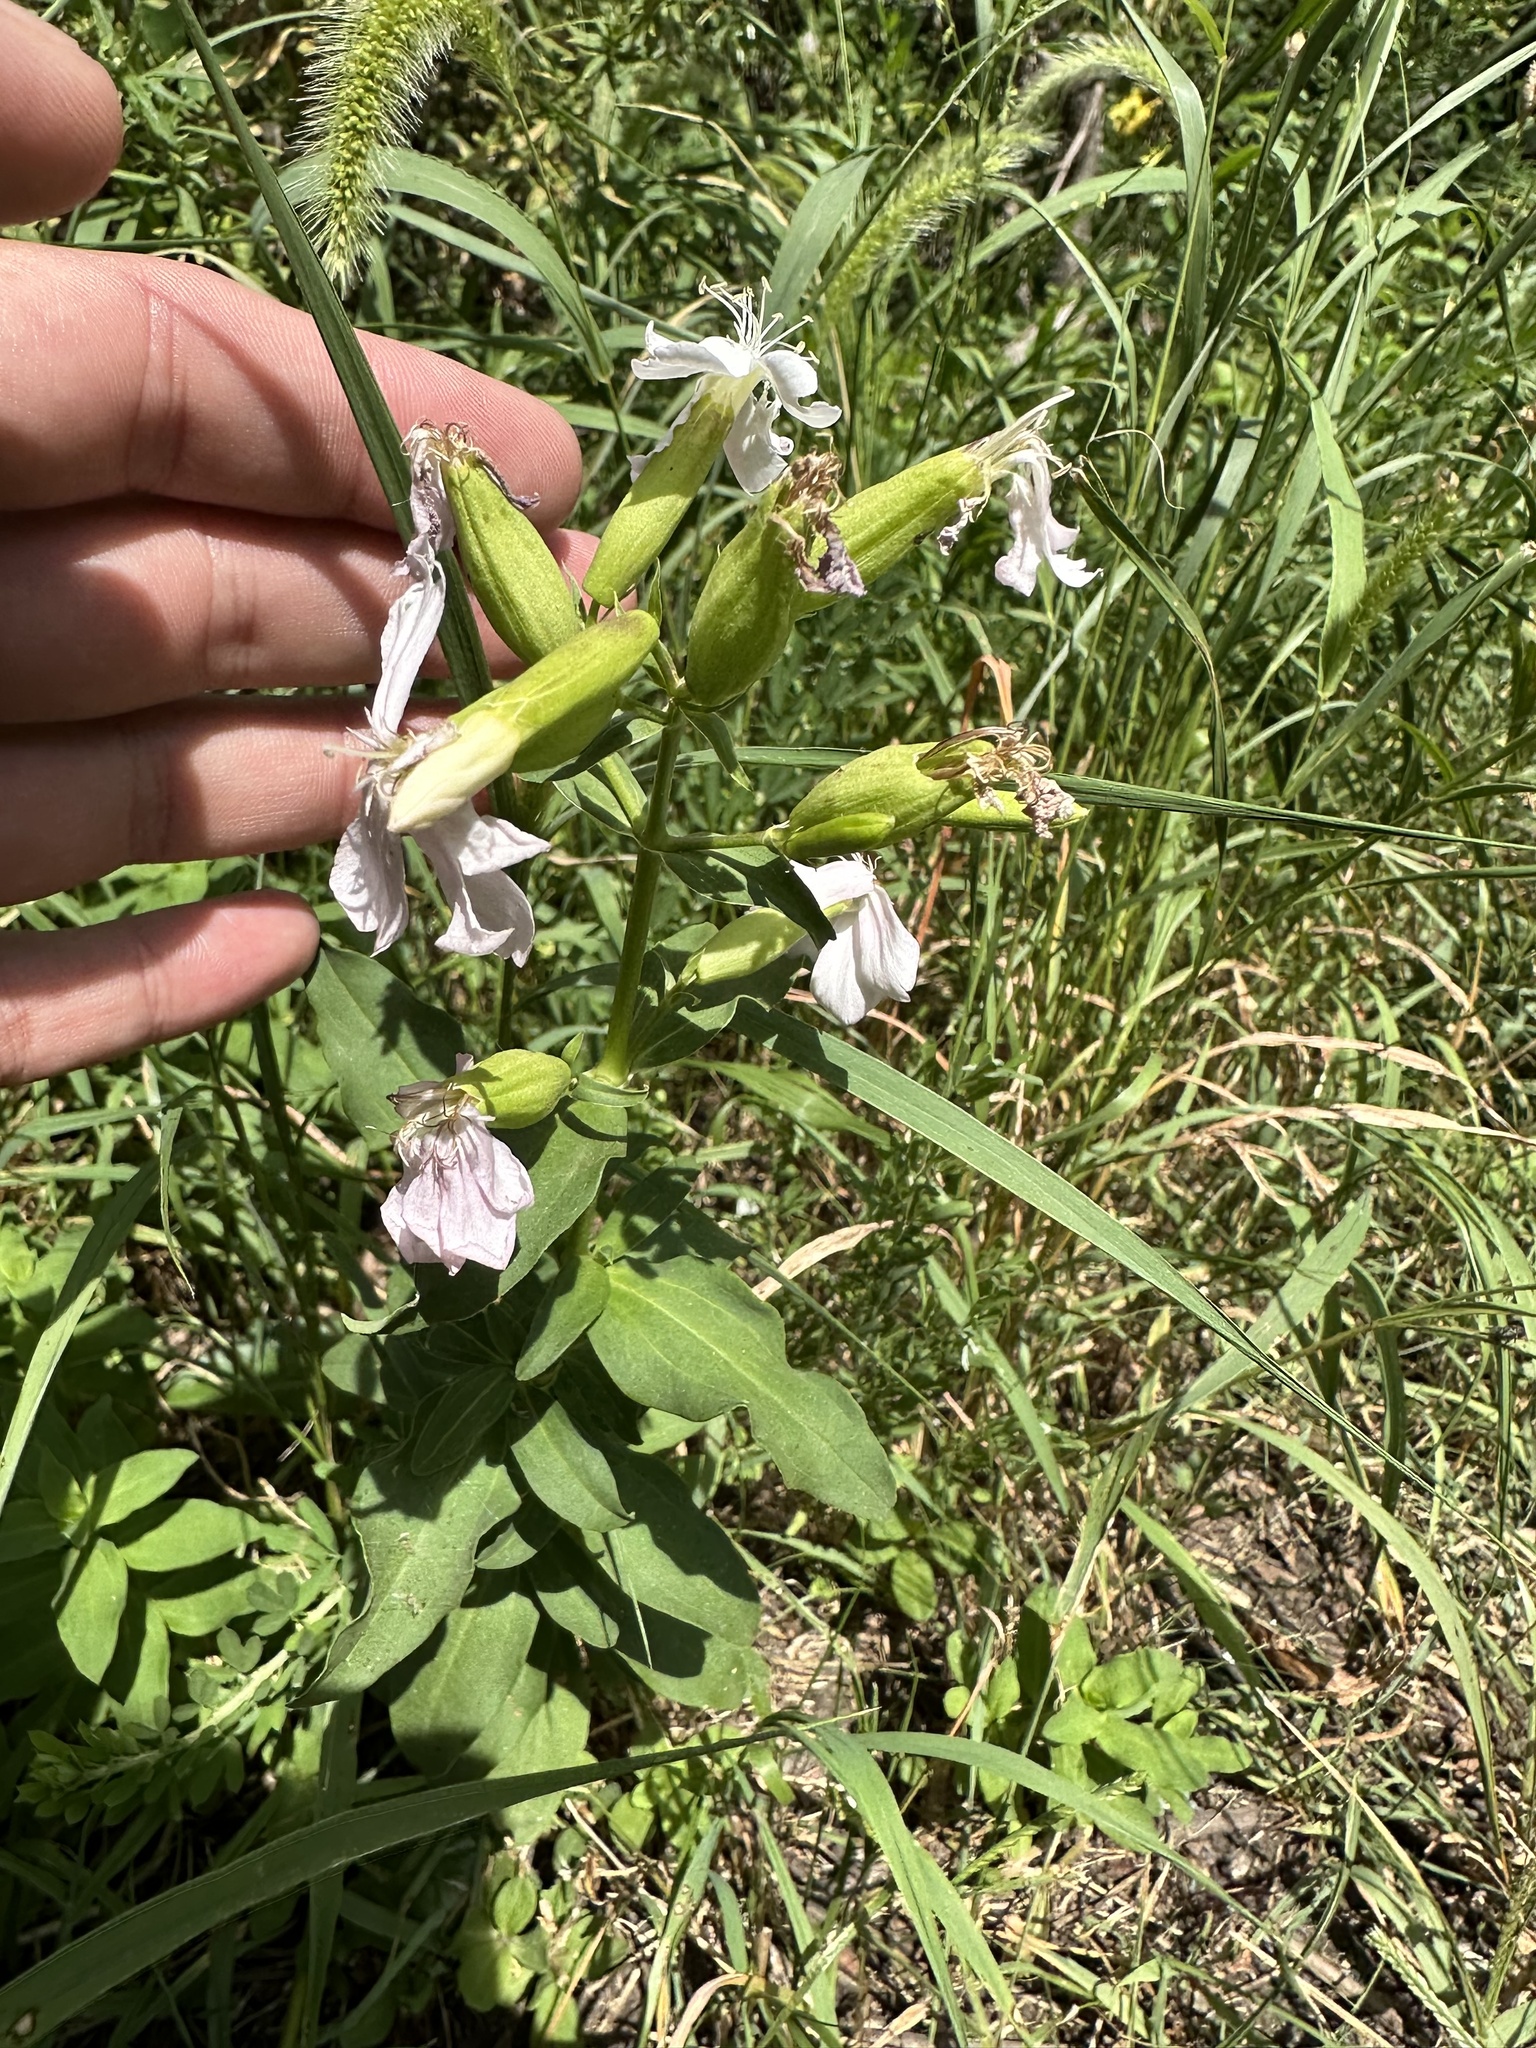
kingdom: Plantae
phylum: Tracheophyta
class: Magnoliopsida
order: Caryophyllales
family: Caryophyllaceae
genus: Saponaria
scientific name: Saponaria officinalis
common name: Soapwort
